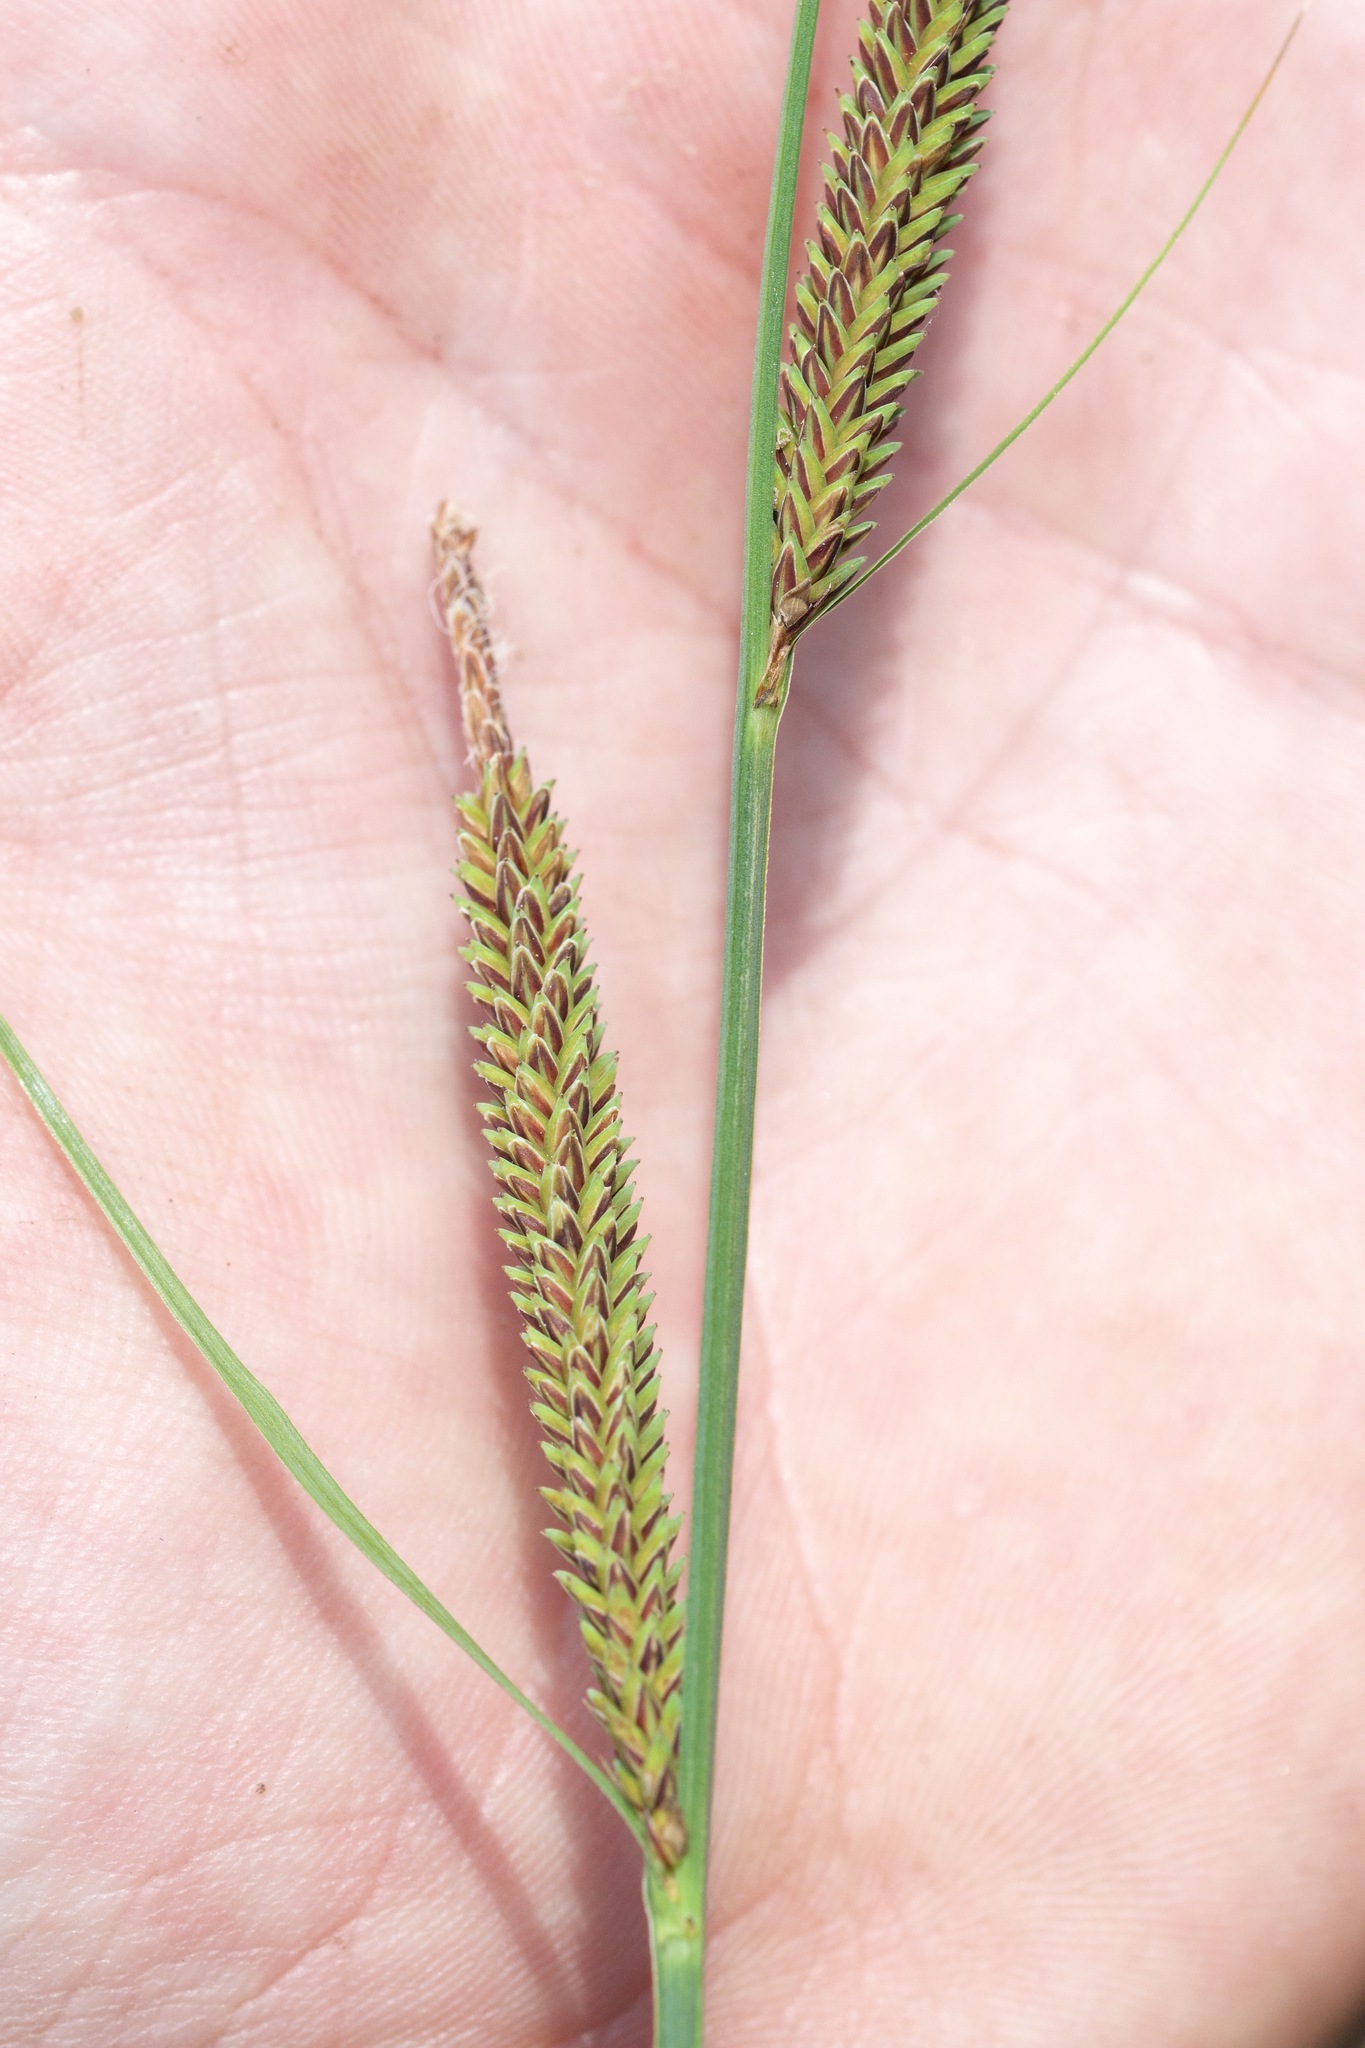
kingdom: Plantae
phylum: Tracheophyta
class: Liliopsida
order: Poales
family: Cyperaceae
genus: Carex
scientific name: Carex stricta
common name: Hummock sedge
